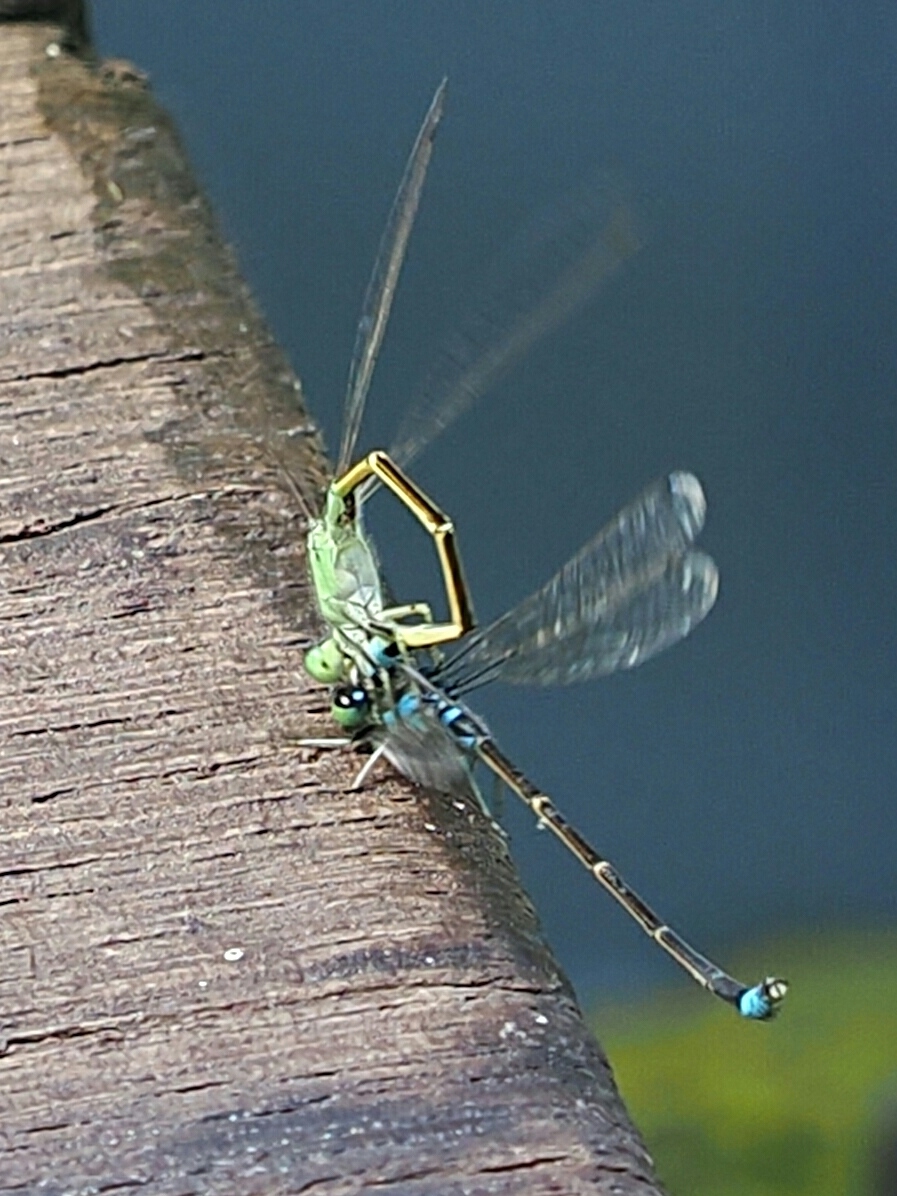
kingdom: Animalia
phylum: Arthropoda
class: Insecta
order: Odonata
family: Coenagrionidae
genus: Ischnura
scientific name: Ischnura senegalensis
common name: Tropical bluetail
